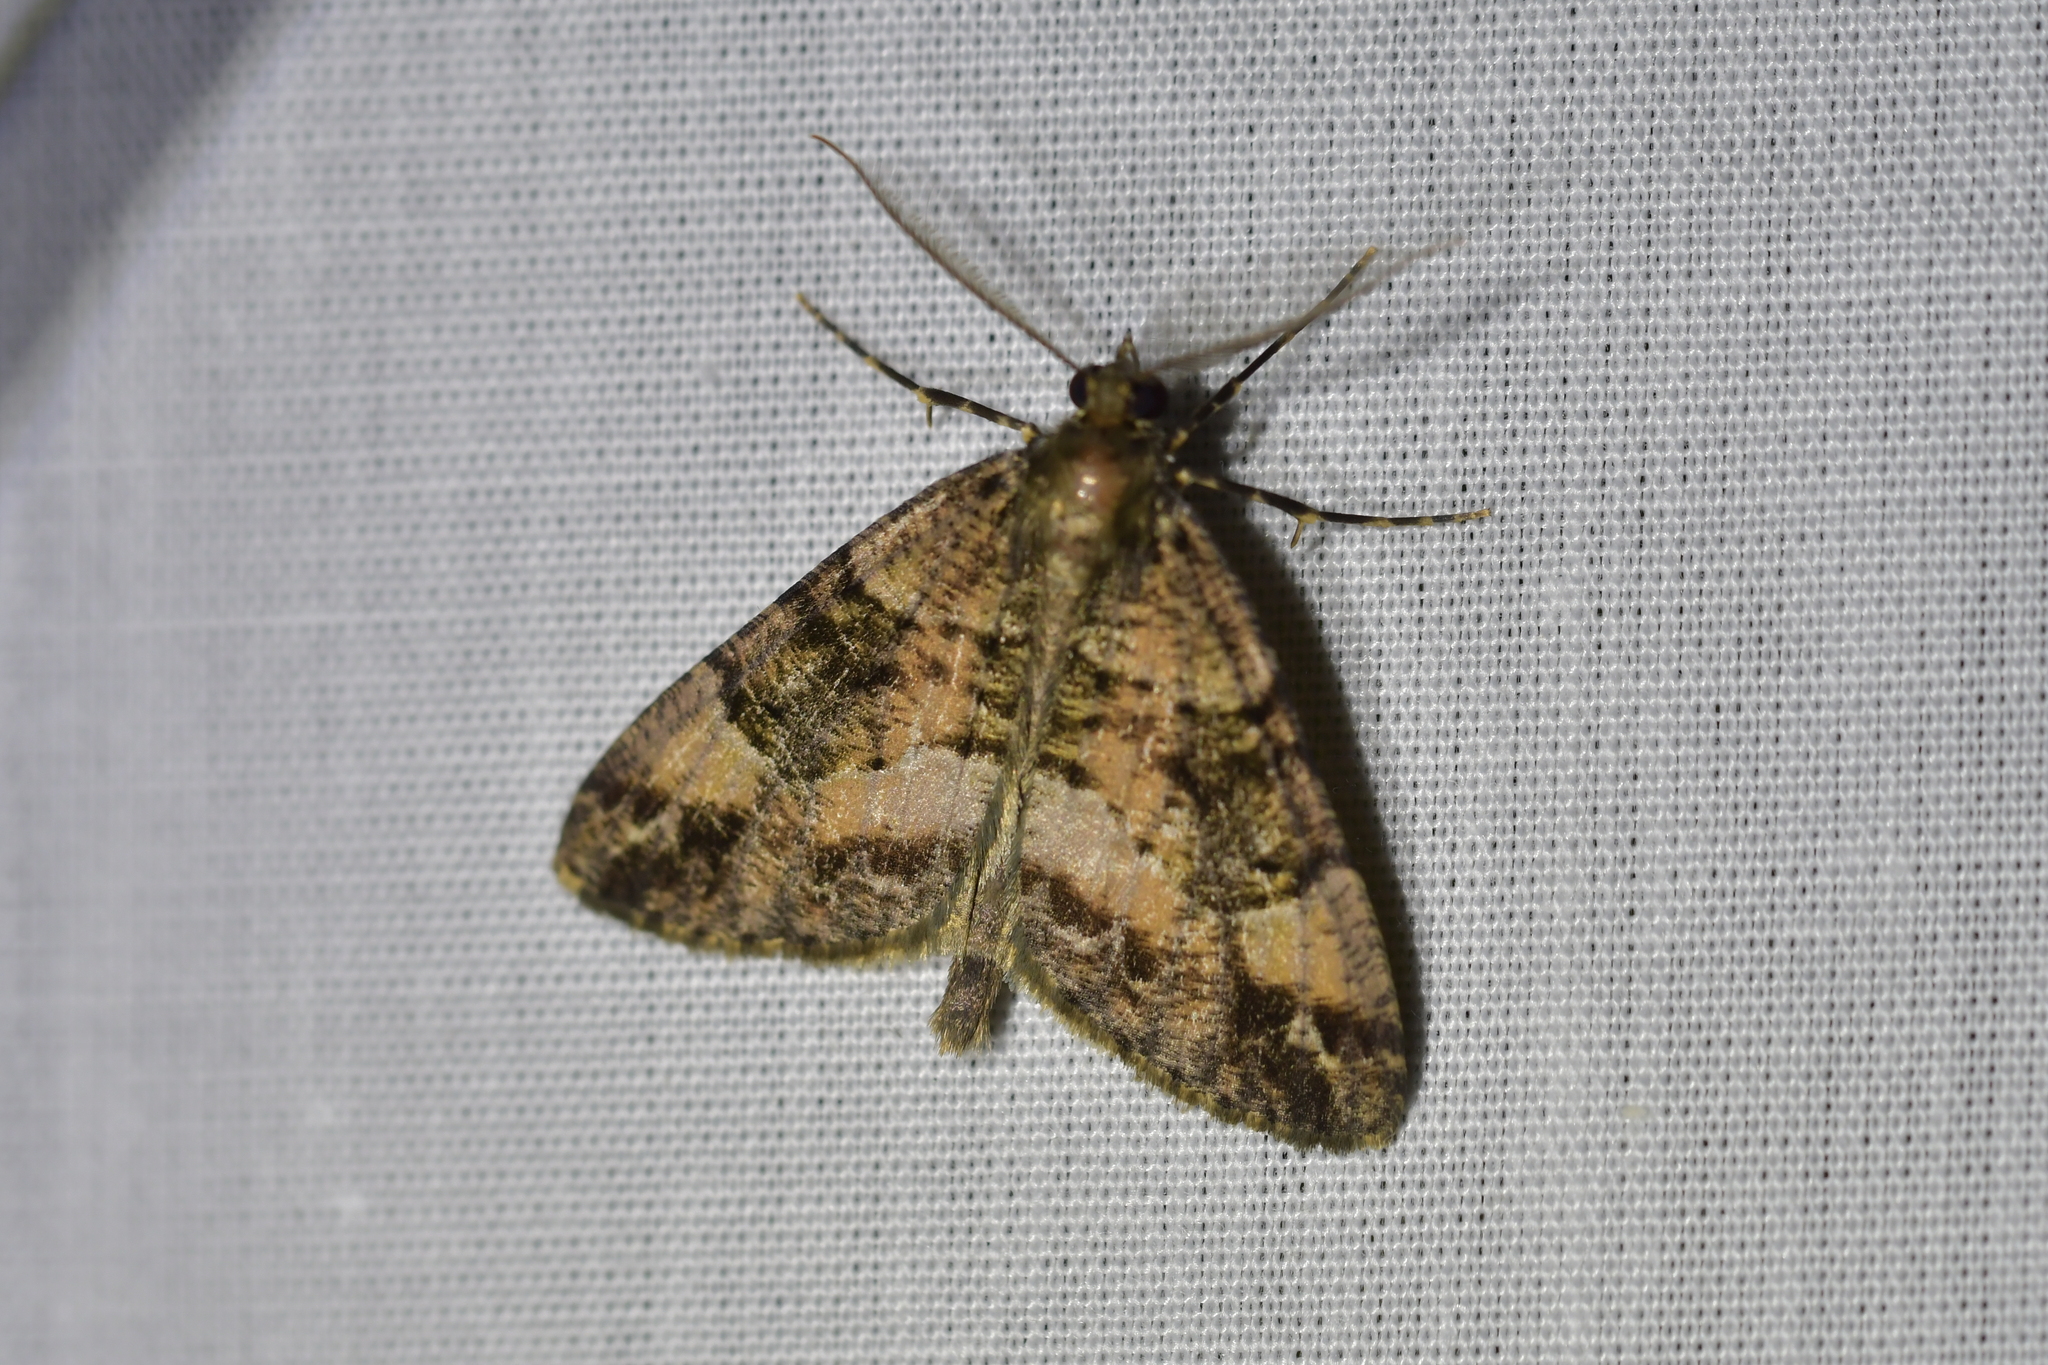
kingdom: Animalia
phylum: Arthropoda
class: Insecta
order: Lepidoptera
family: Geometridae
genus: Pseudocoremia
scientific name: Pseudocoremia productata
